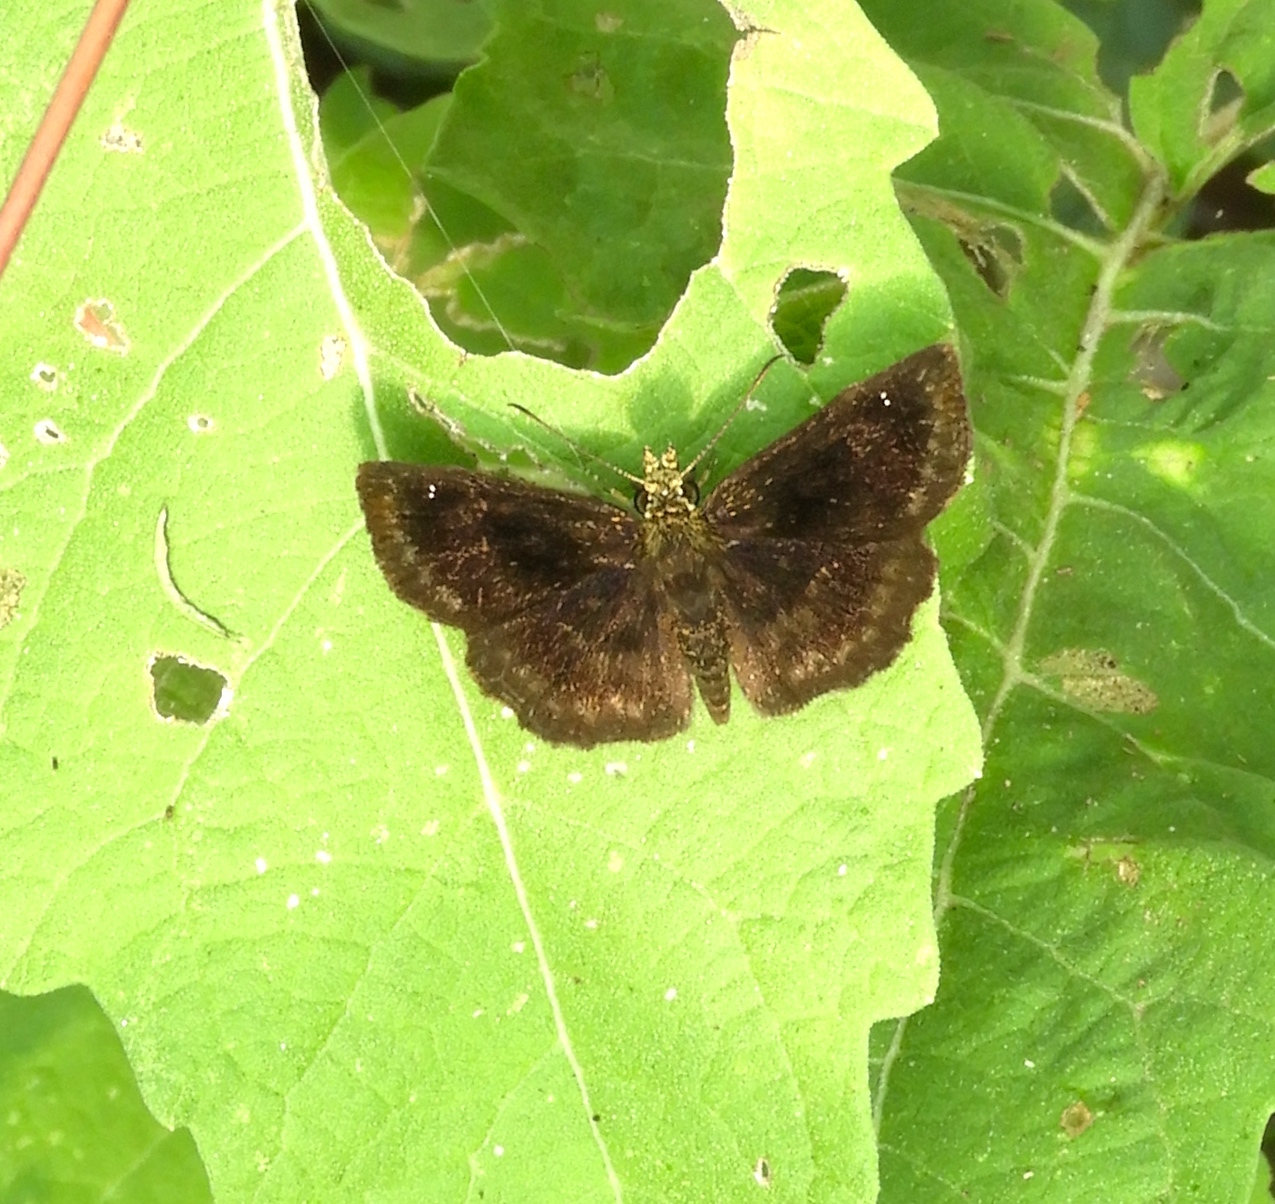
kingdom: Animalia
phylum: Arthropoda
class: Insecta
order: Lepidoptera
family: Hesperiidae
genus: Staphylus
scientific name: Staphylus
